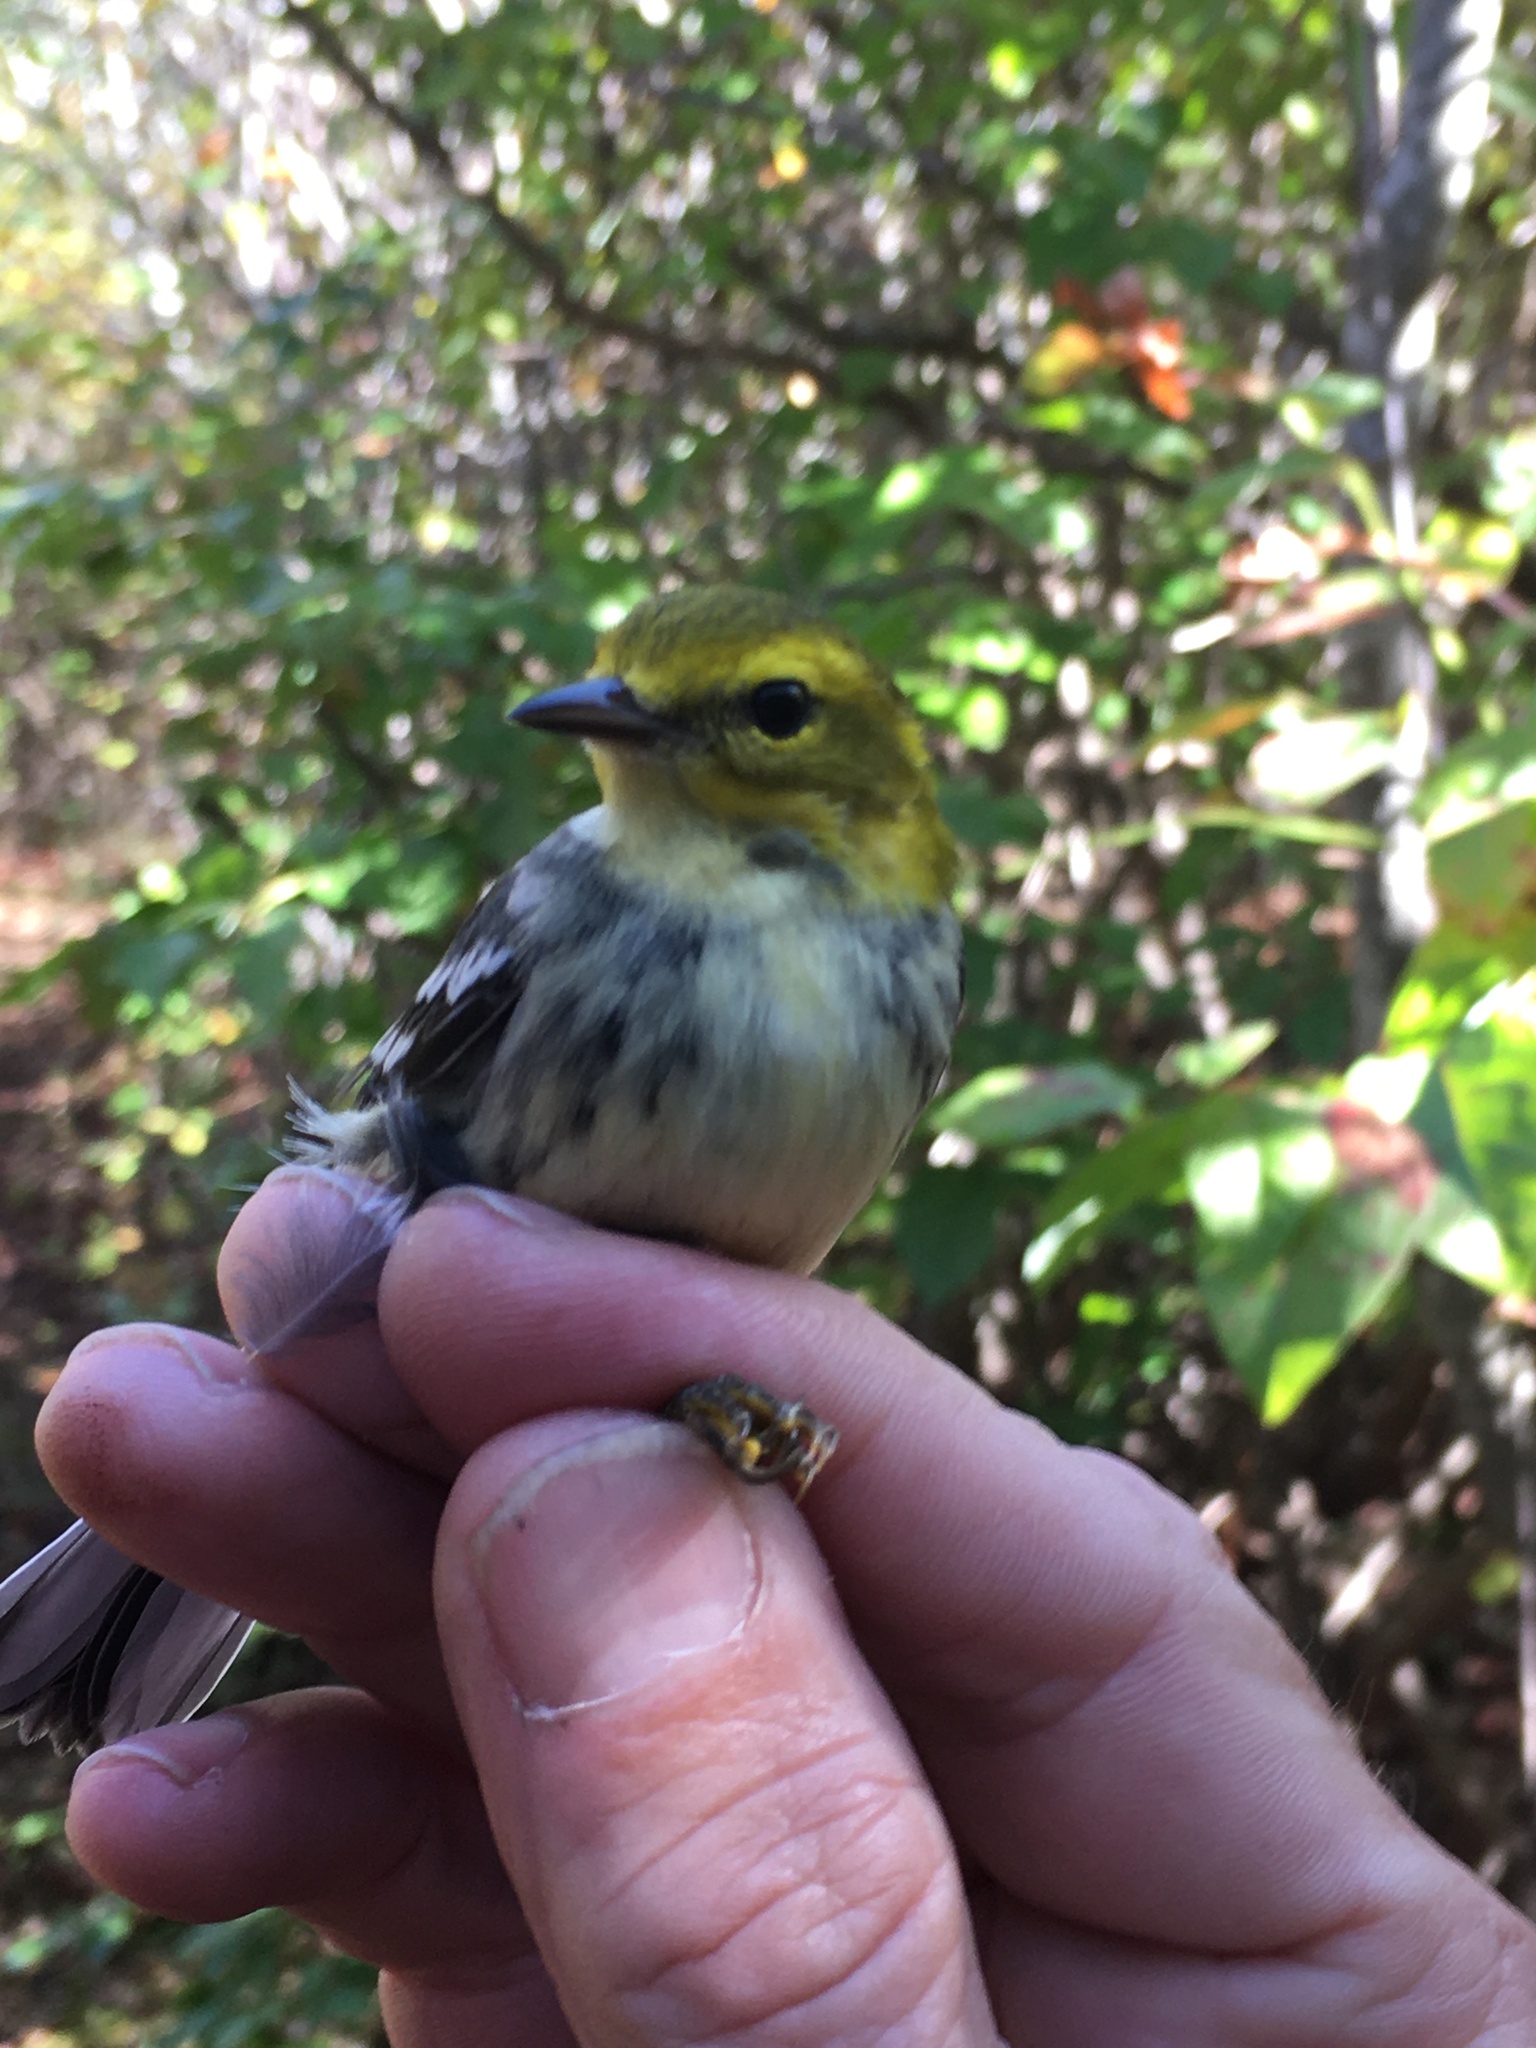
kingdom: Animalia
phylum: Chordata
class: Aves
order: Passeriformes
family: Parulidae
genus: Setophaga
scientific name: Setophaga virens
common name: Black-throated green warbler
